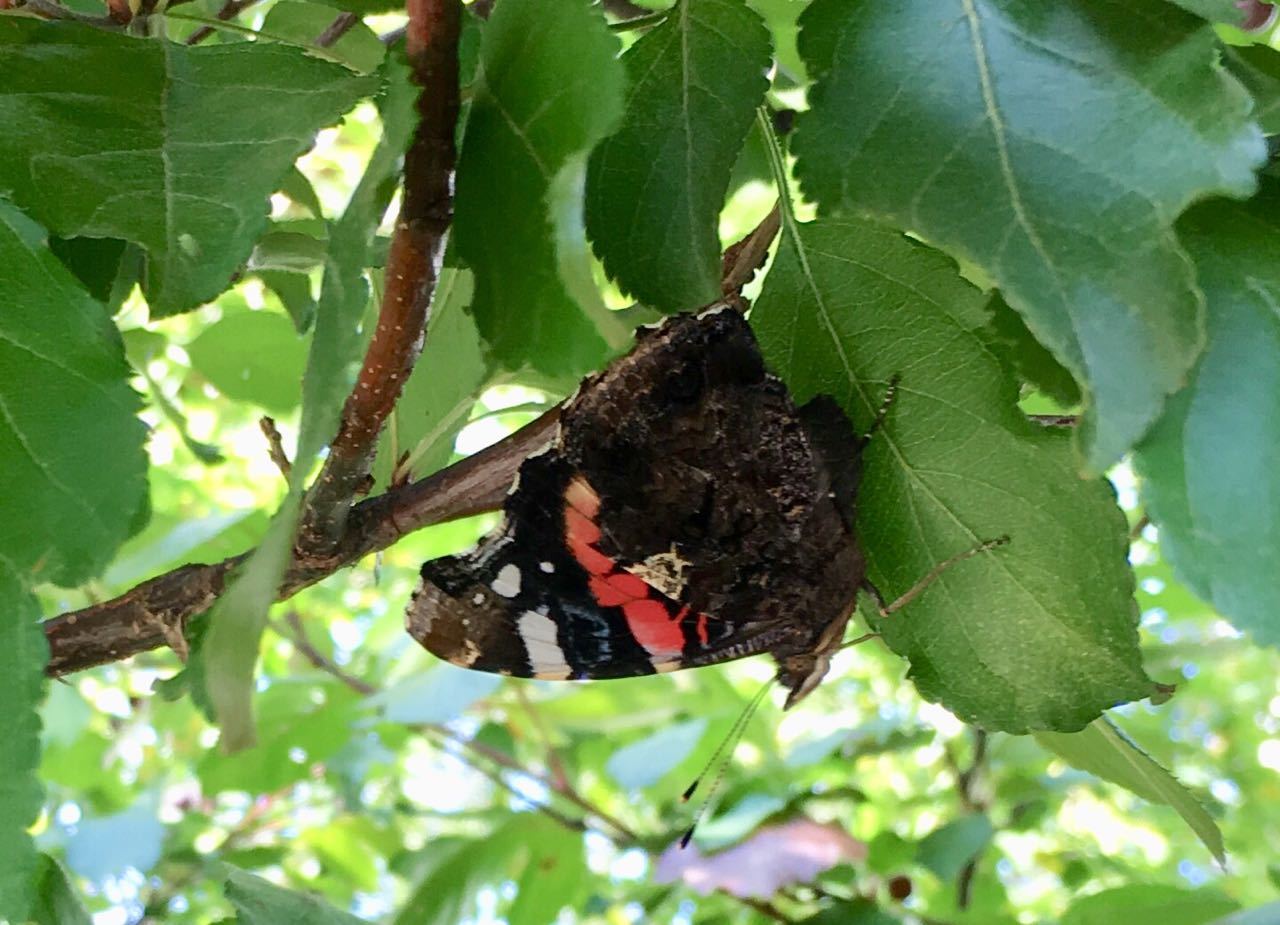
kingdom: Animalia
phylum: Arthropoda
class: Insecta
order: Lepidoptera
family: Nymphalidae
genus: Vanessa
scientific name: Vanessa atalanta
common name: Red admiral
